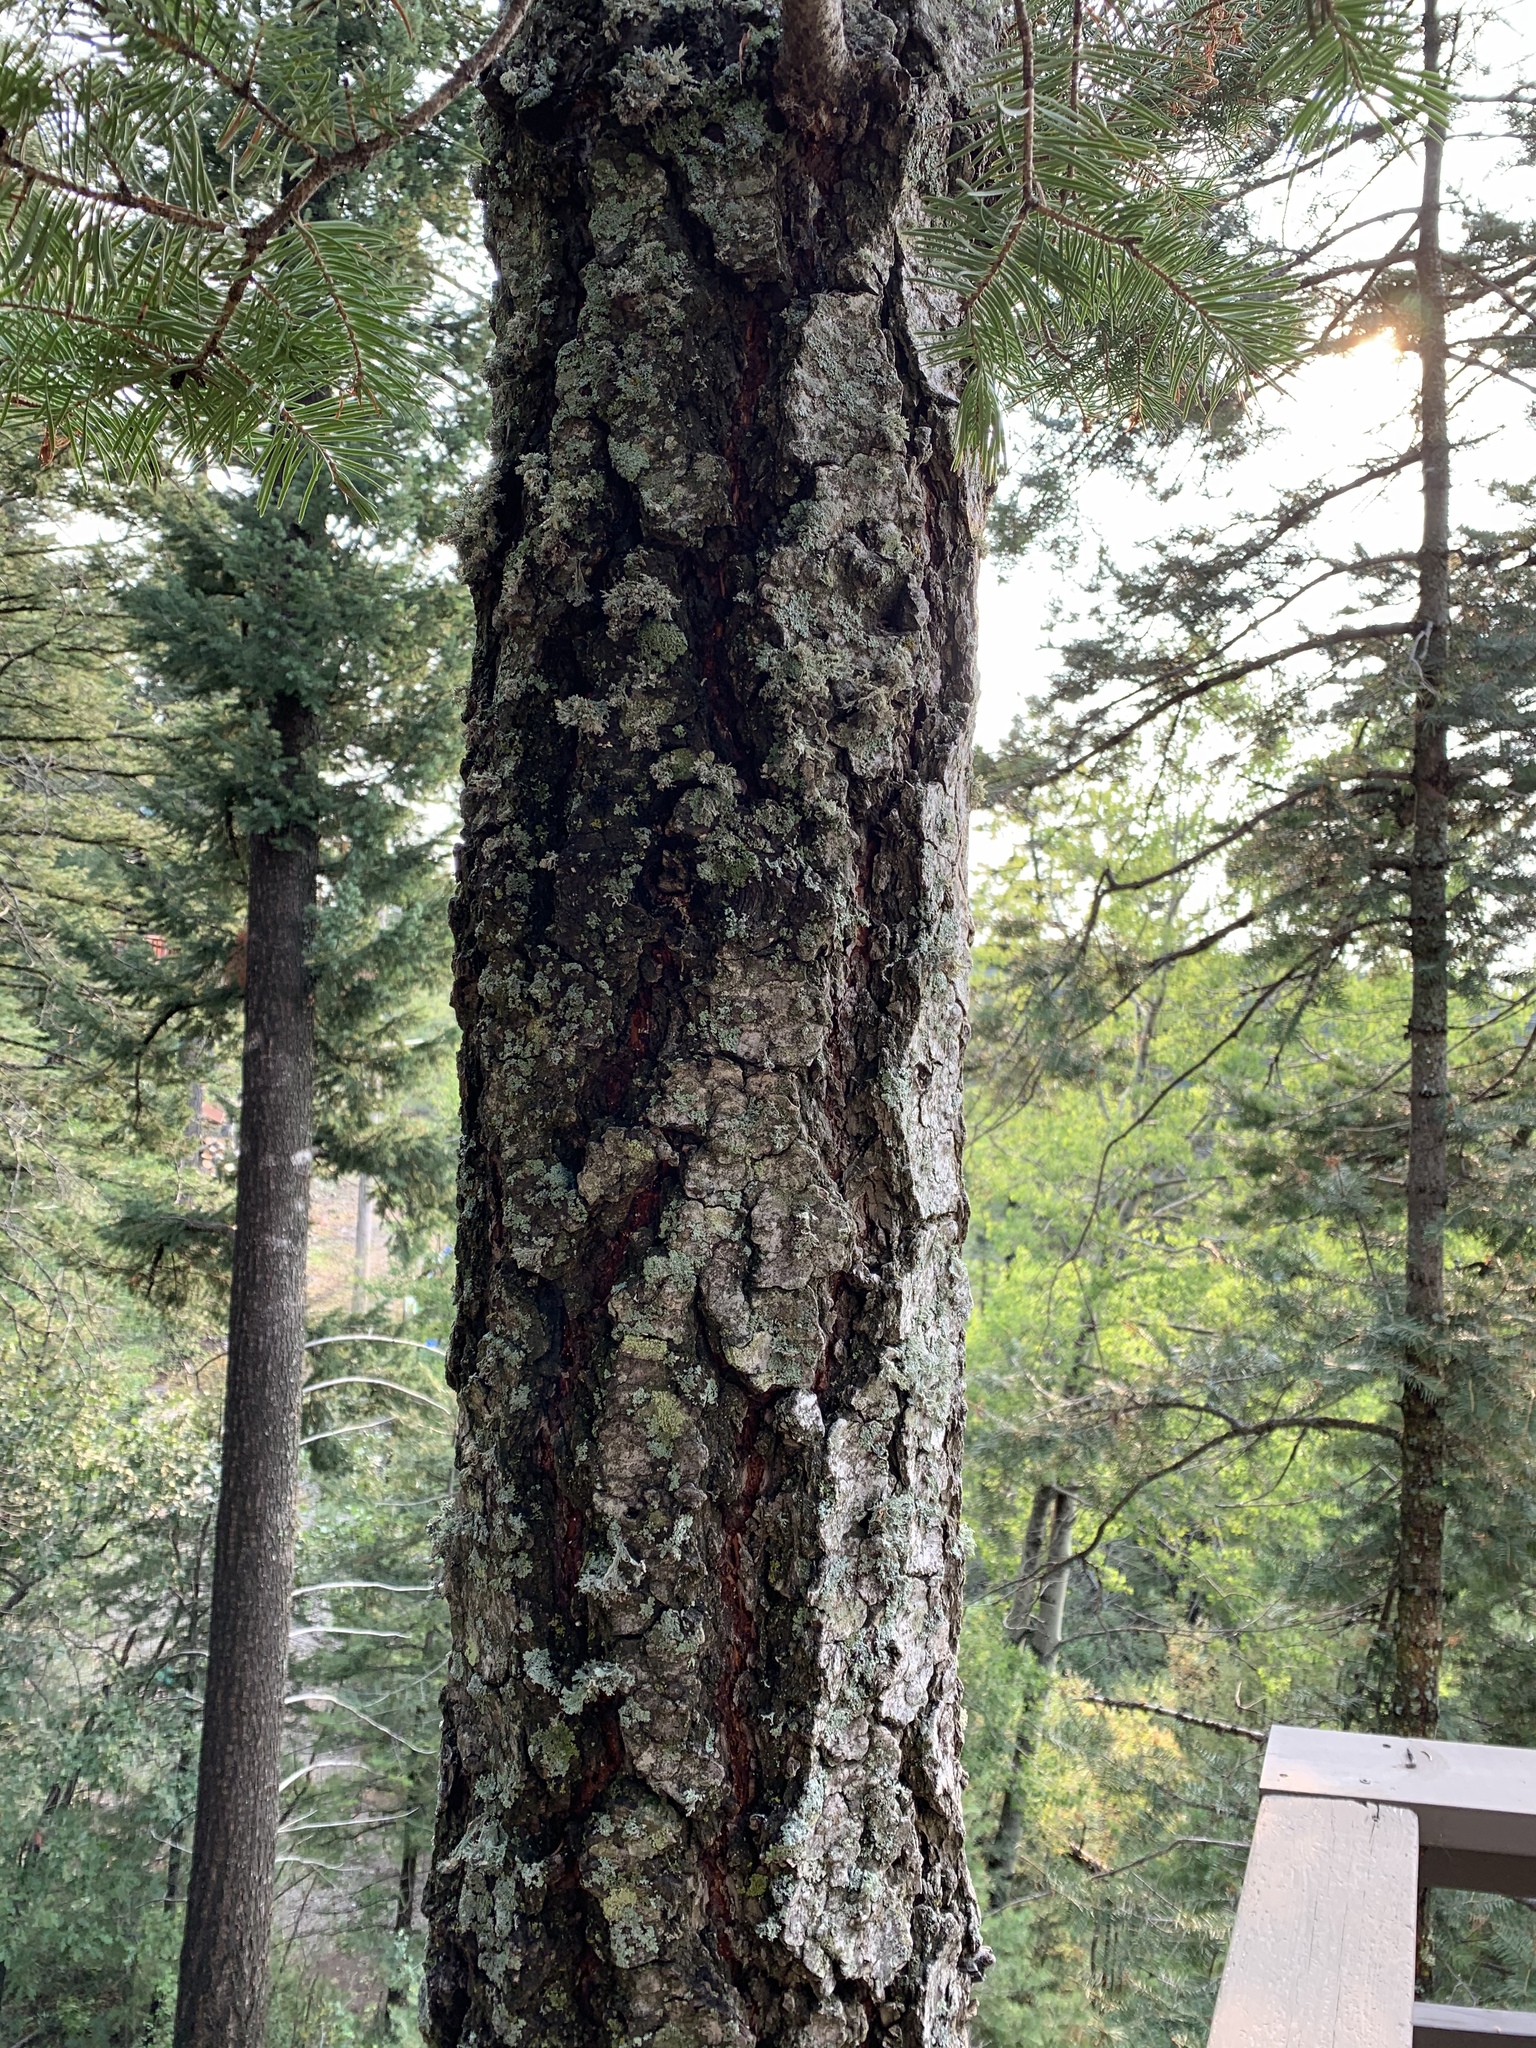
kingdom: Plantae
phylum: Tracheophyta
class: Pinopsida
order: Pinales
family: Pinaceae
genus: Abies
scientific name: Abies concolor
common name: Colorado fir
